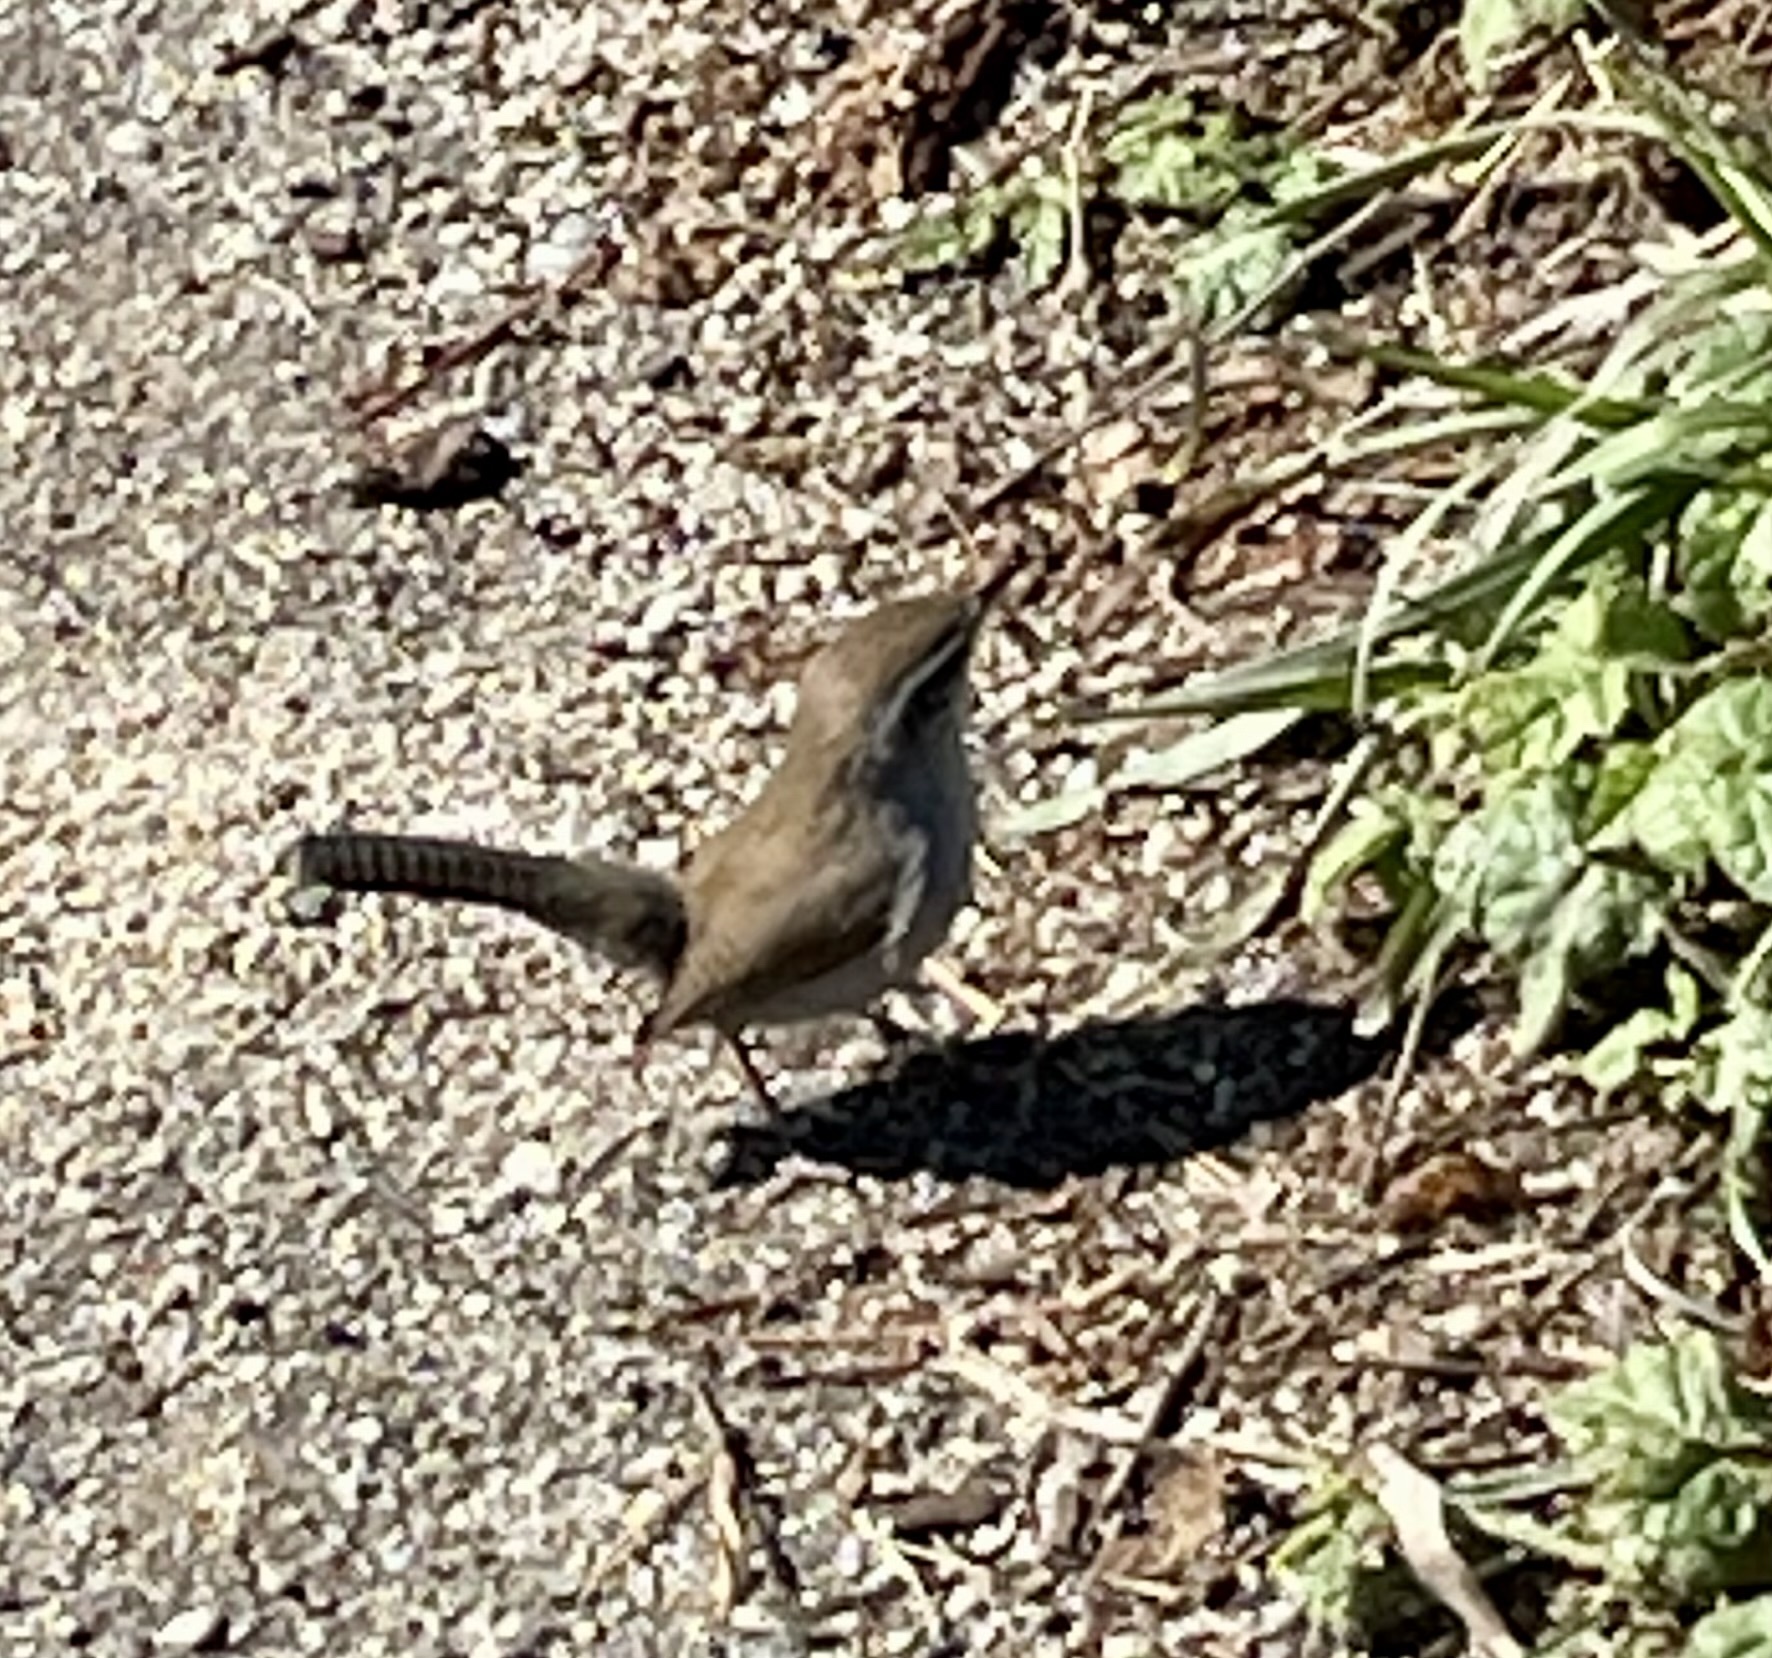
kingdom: Animalia
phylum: Chordata
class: Aves
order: Passeriformes
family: Troglodytidae
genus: Thryomanes
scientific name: Thryomanes bewickii
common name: Bewick's wren
